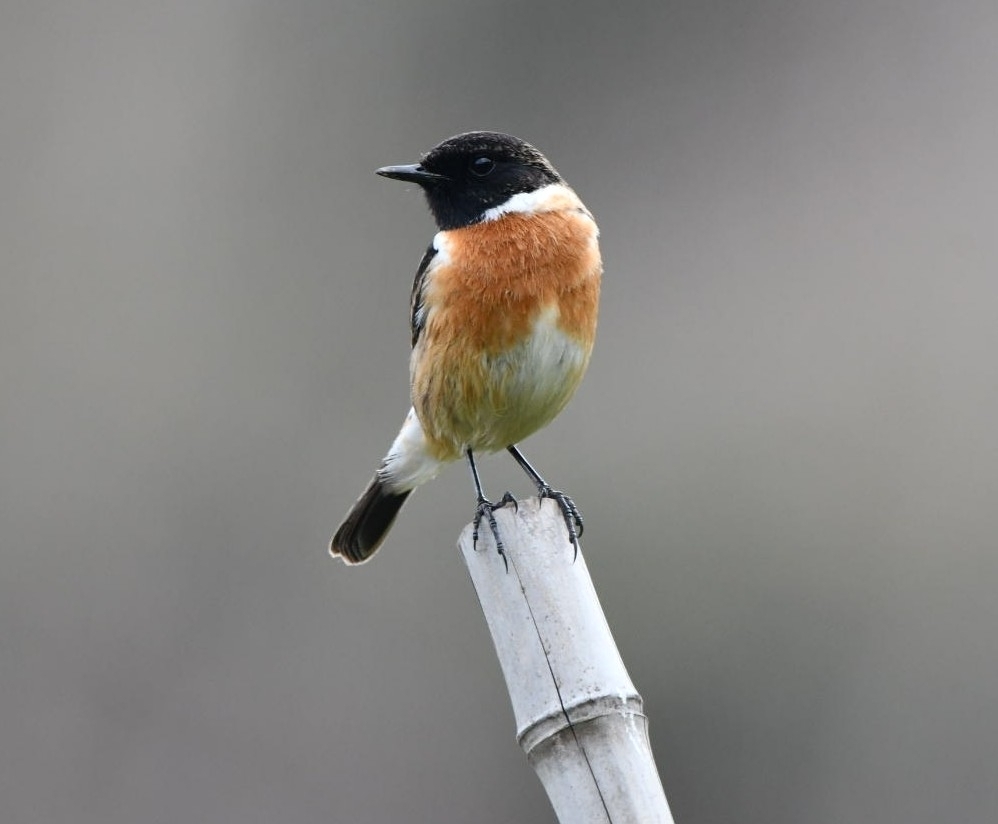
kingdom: Animalia
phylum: Chordata
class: Aves
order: Passeriformes
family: Muscicapidae
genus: Saxicola
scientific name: Saxicola rubicola
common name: European stonechat
